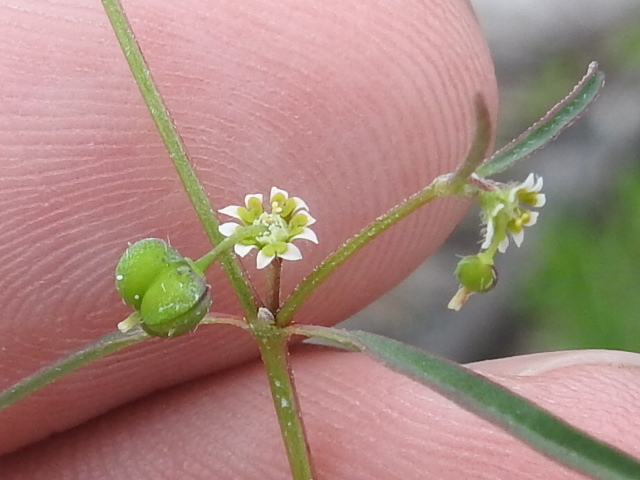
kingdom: Plantae
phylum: Tracheophyta
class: Magnoliopsida
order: Malpighiales
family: Euphorbiaceae
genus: Euphorbia
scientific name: Euphorbia bilobata
